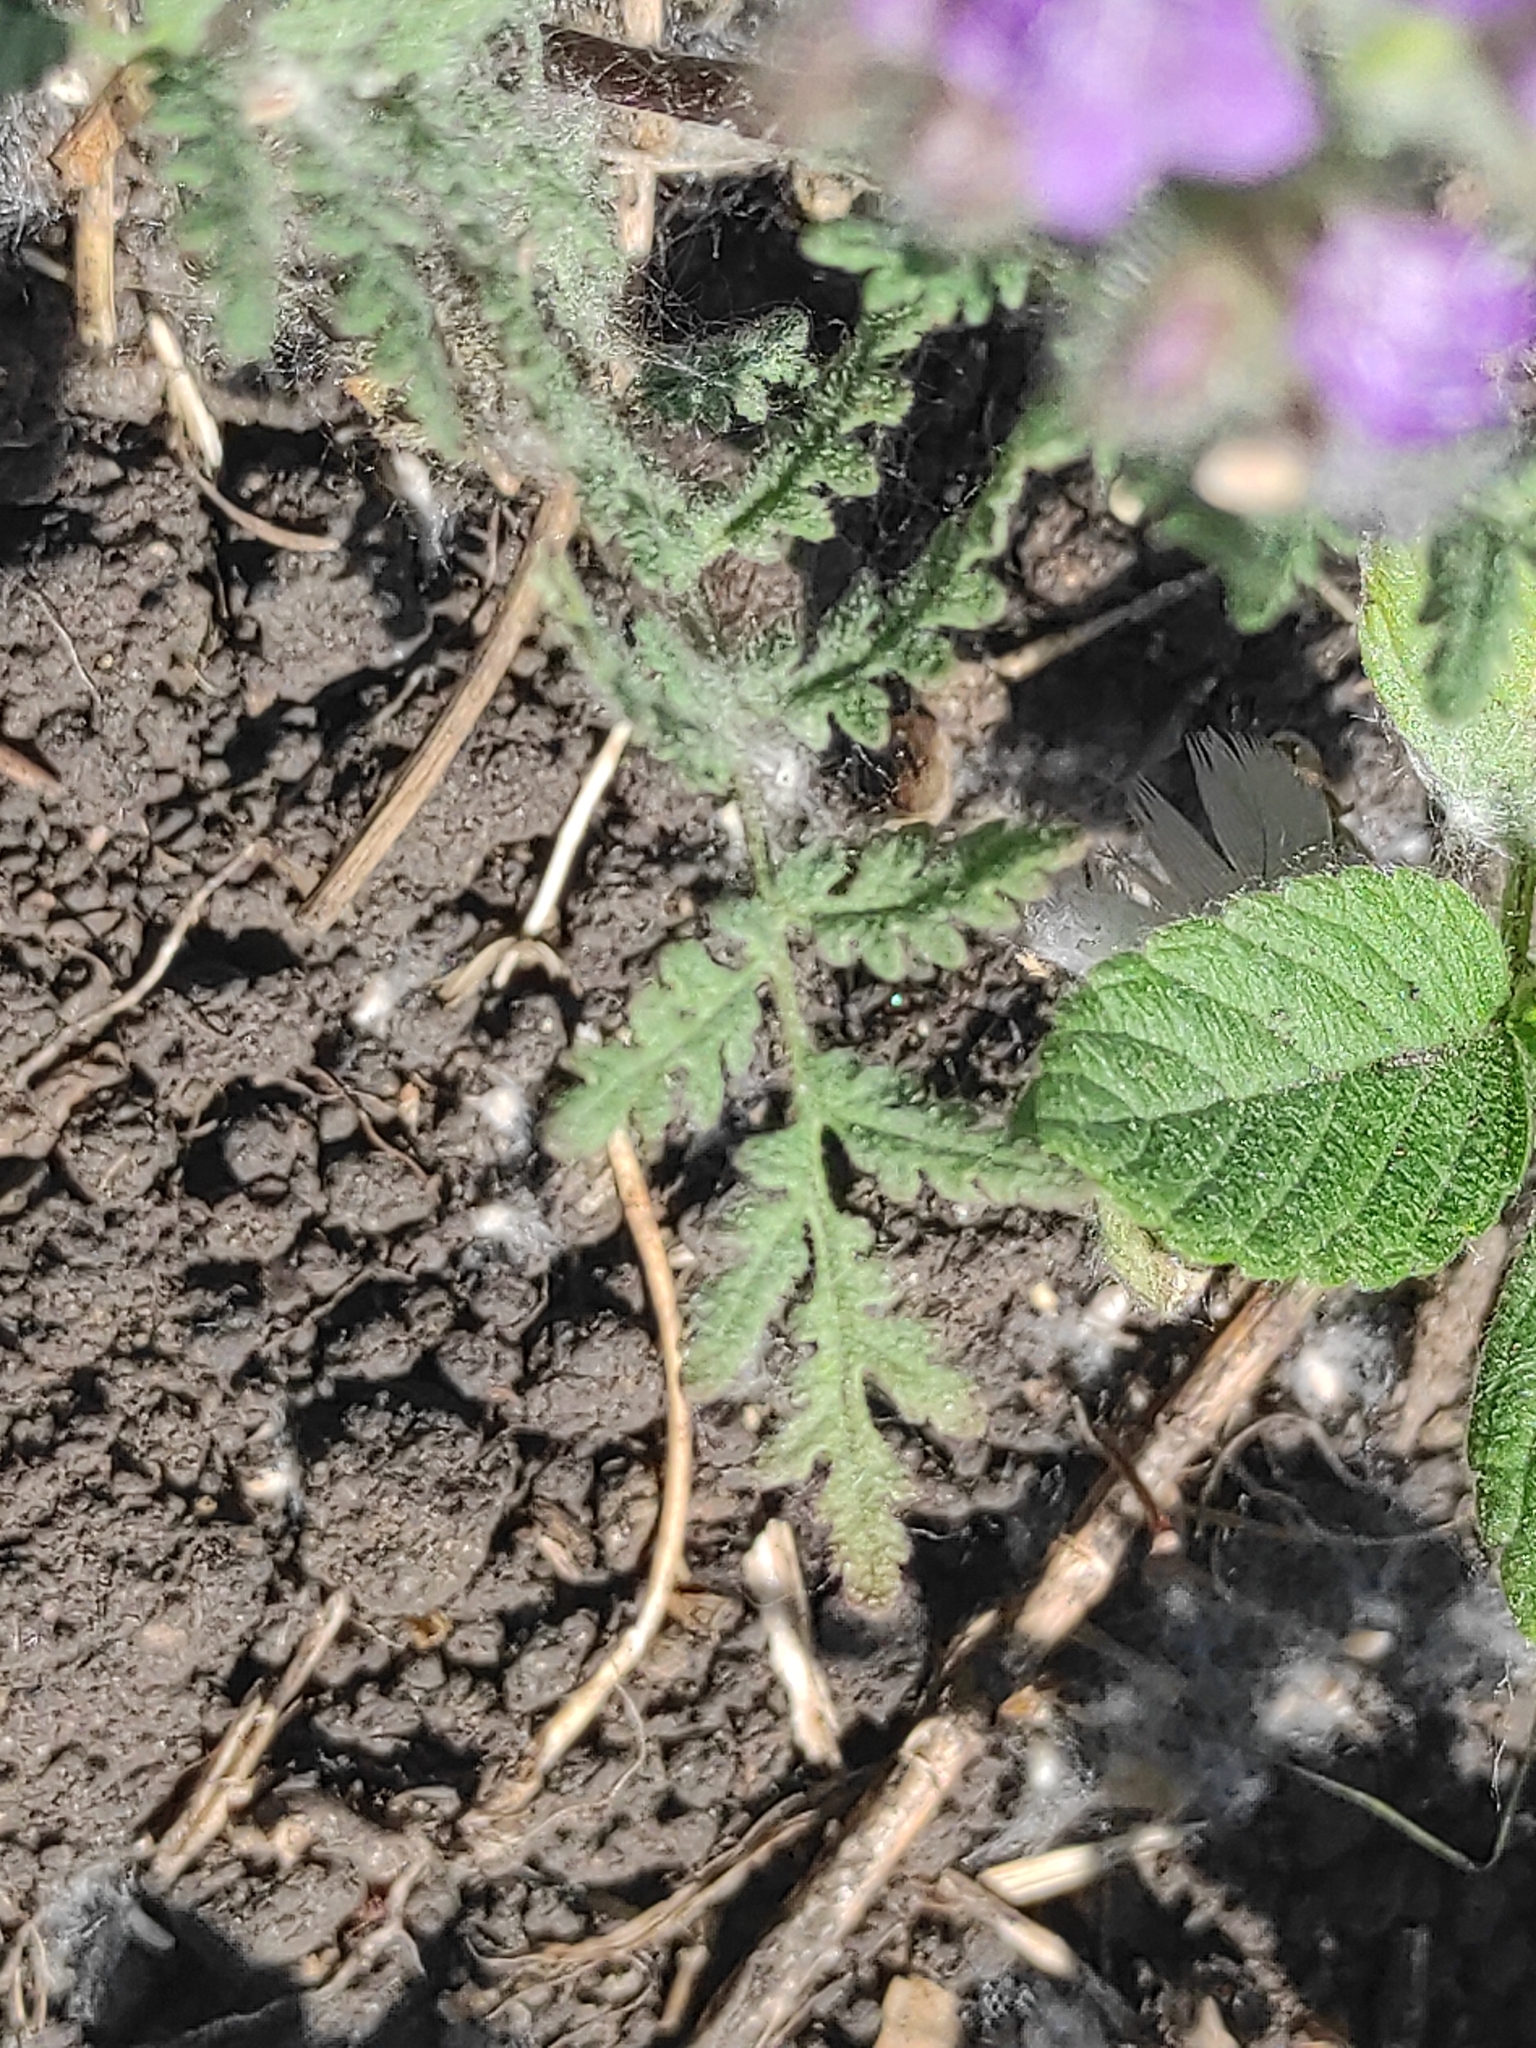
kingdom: Plantae
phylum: Tracheophyta
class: Magnoliopsida
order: Boraginales
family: Hydrophyllaceae
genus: Phacelia
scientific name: Phacelia tanacetifolia
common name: Phacelia
